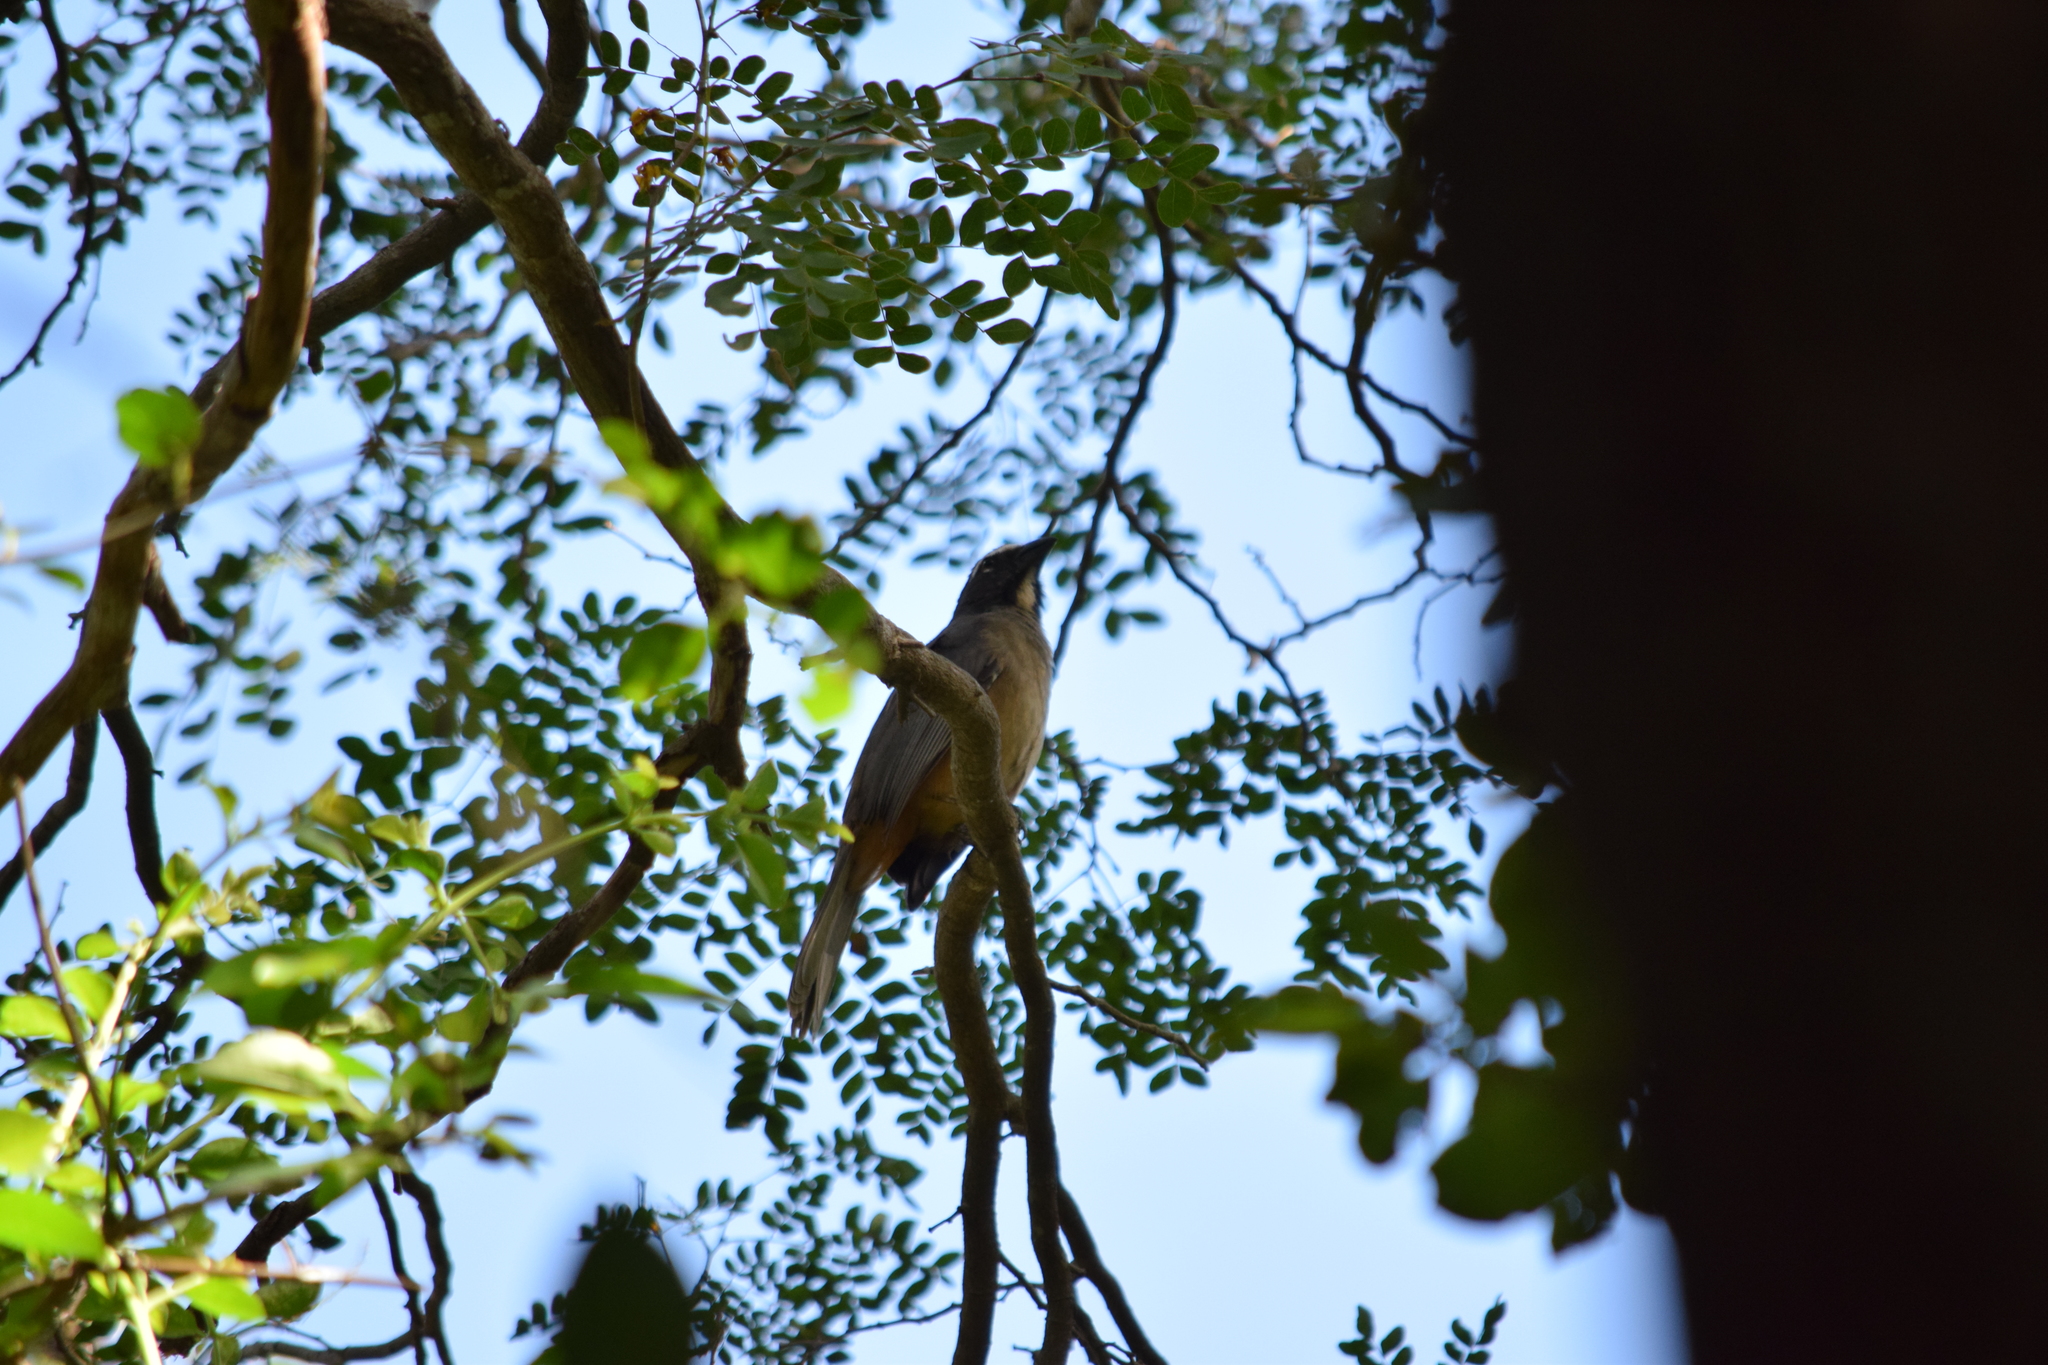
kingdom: Animalia
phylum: Chordata
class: Aves
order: Passeriformes
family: Thraupidae
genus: Saltator
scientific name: Saltator grandis
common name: Cinnamon-bellied saltator
